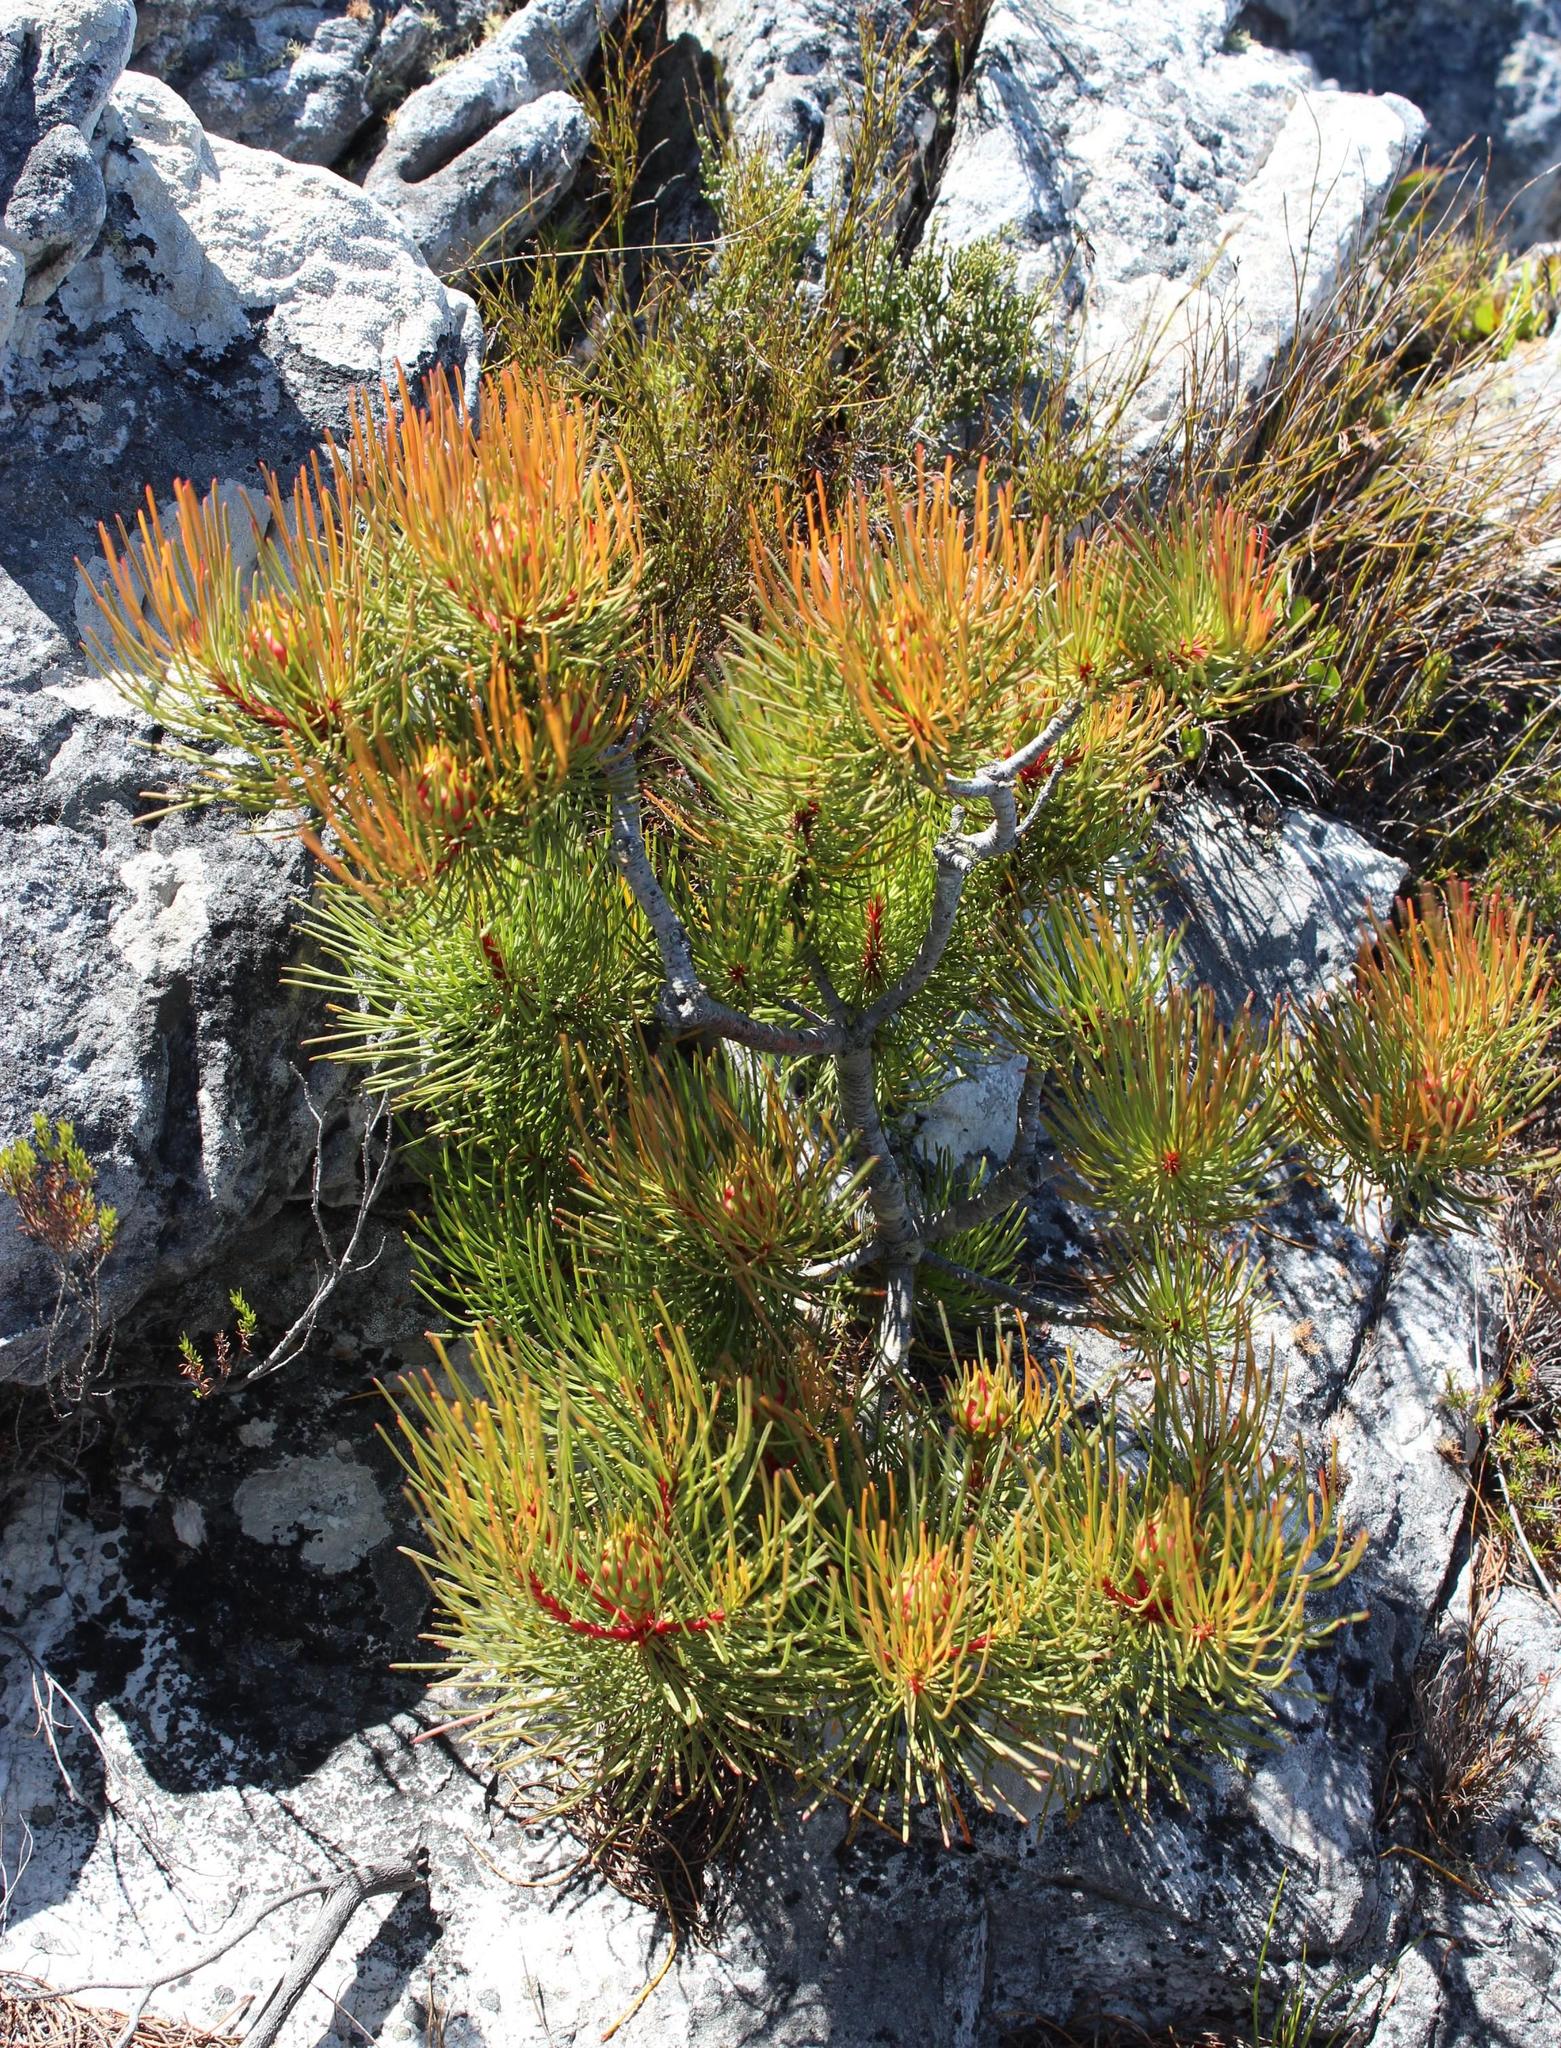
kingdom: Plantae
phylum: Tracheophyta
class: Magnoliopsida
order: Proteales
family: Proteaceae
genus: Aulax
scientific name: Aulax cancellata
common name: Channel-leaf featherbush
